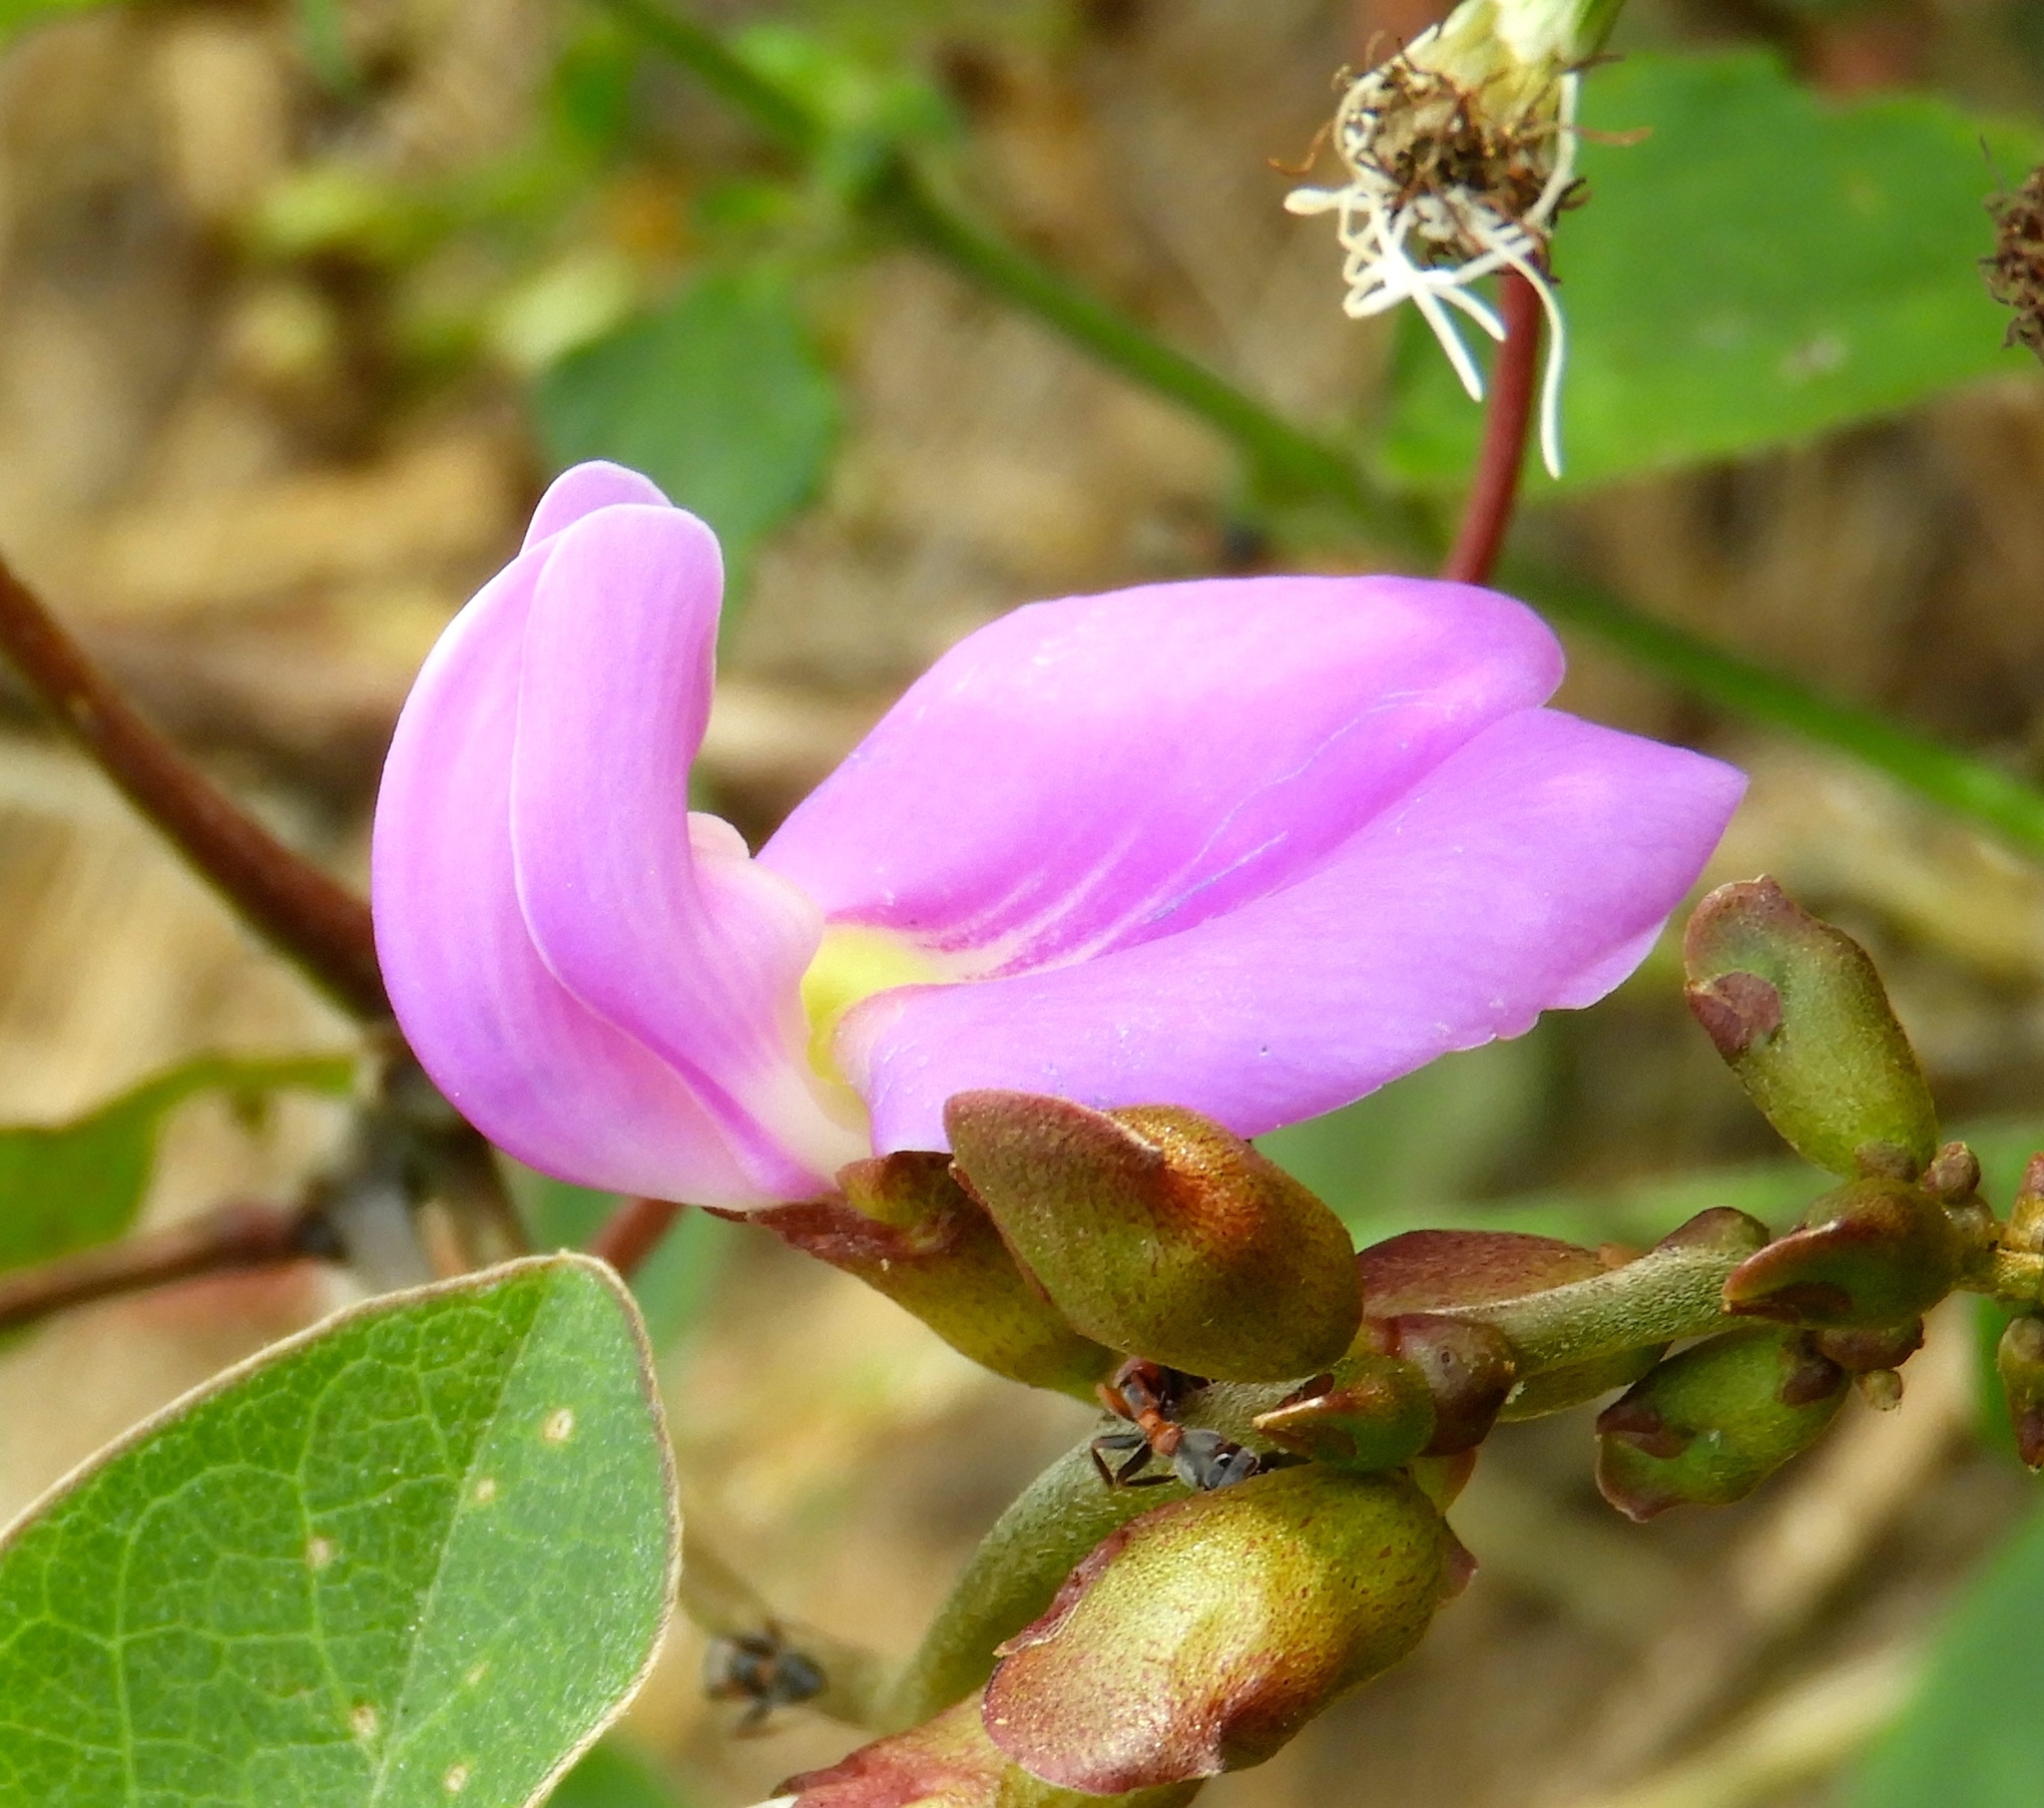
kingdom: Plantae
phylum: Tracheophyta
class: Magnoliopsida
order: Fabales
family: Fabaceae
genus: Canavalia
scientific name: Canavalia brasiliensis
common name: Barbicou-bean
